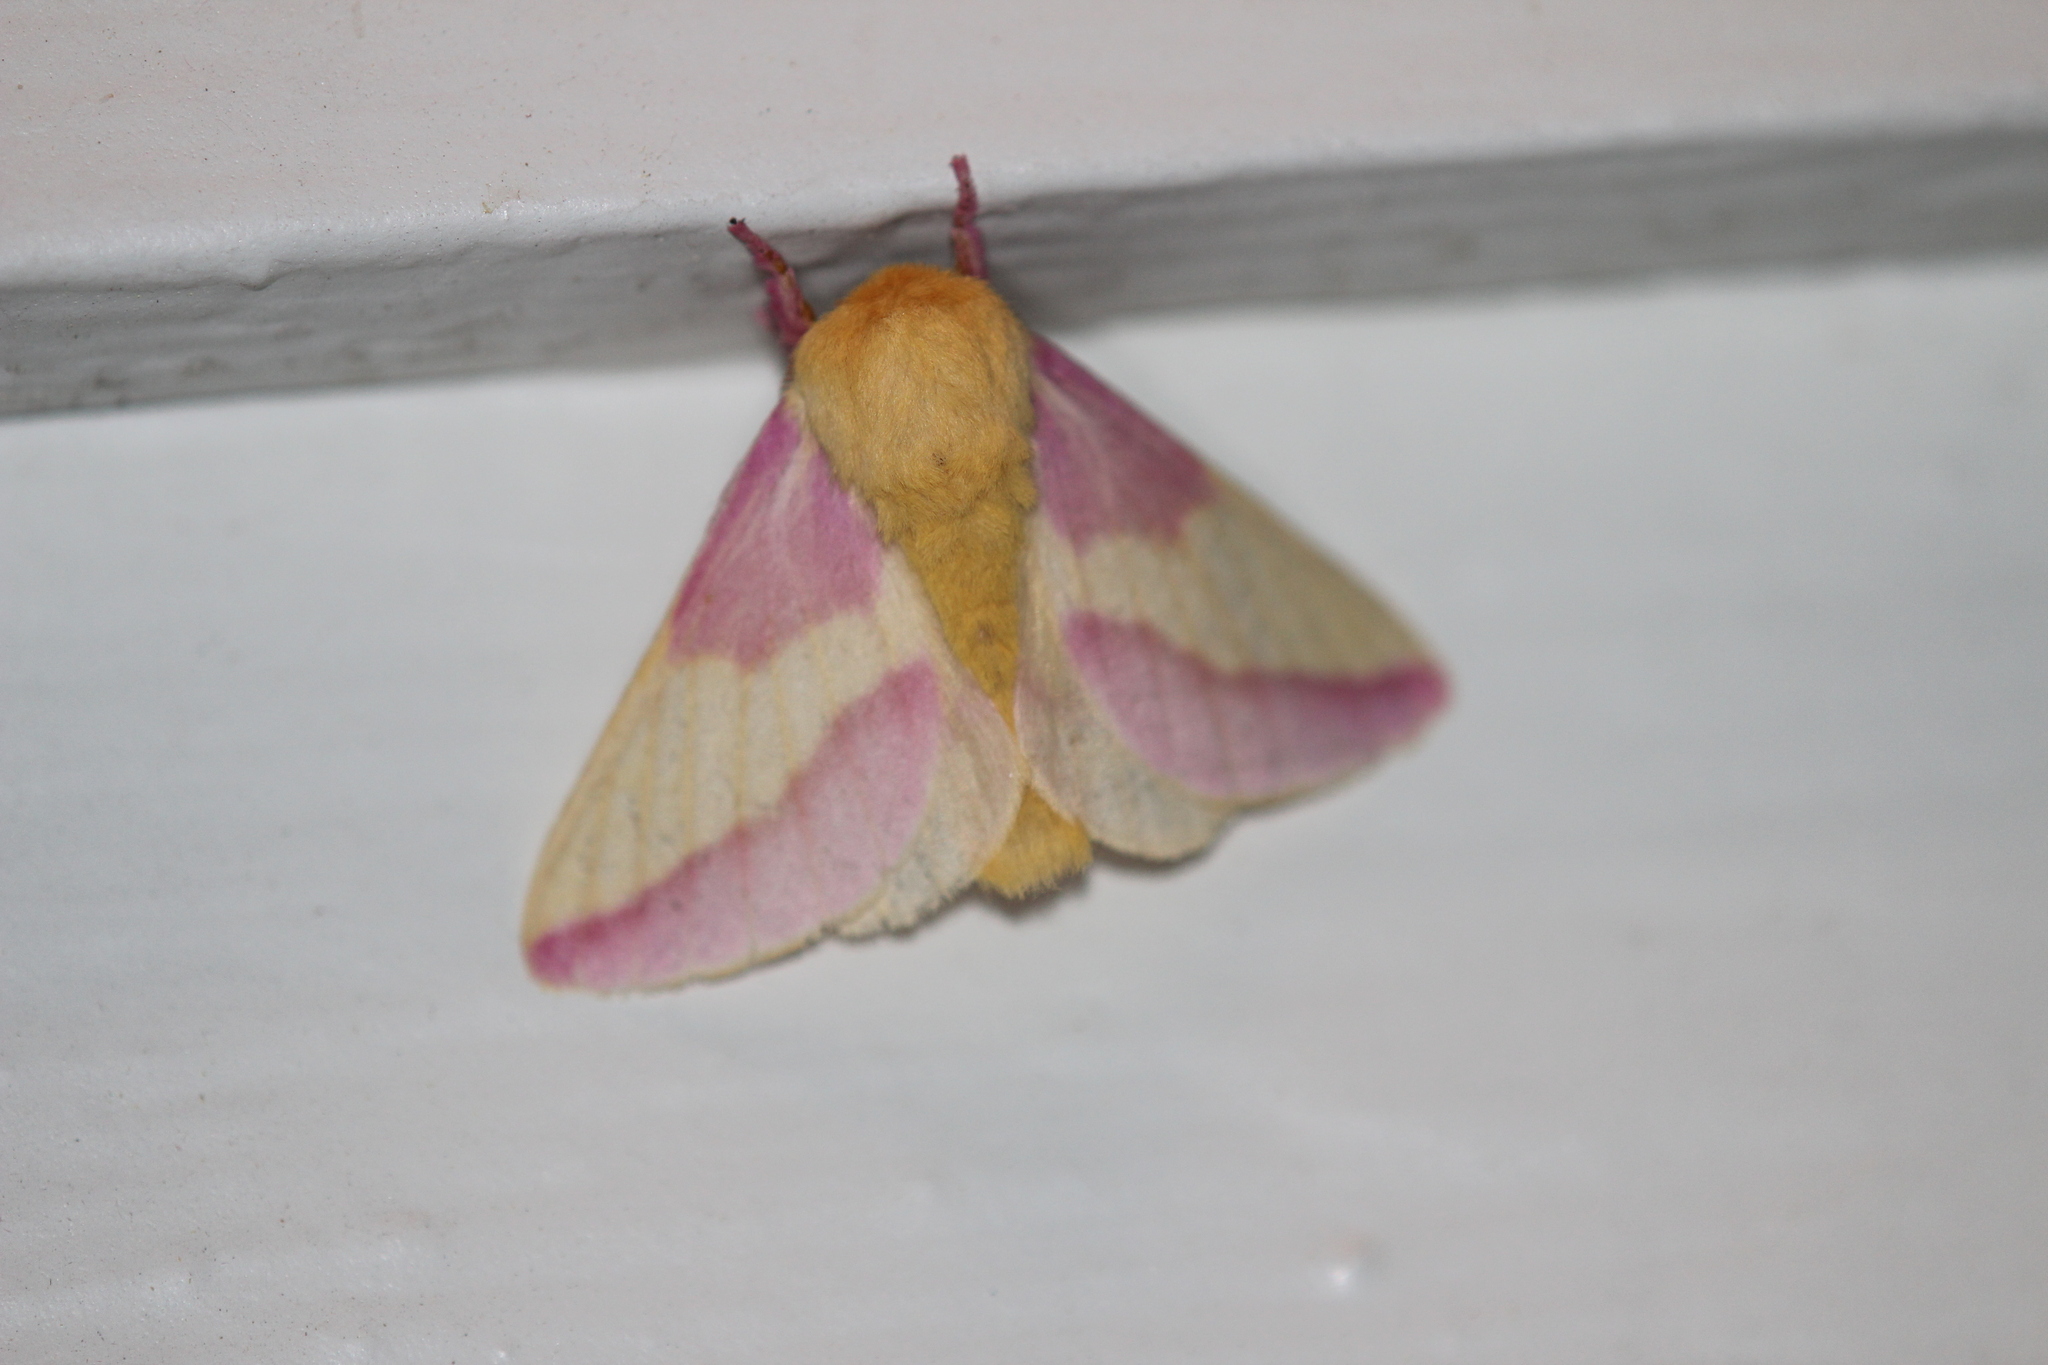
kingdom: Animalia
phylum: Arthropoda
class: Insecta
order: Lepidoptera
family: Saturniidae
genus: Dryocampa
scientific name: Dryocampa rubicunda
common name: Rosy maple moth
